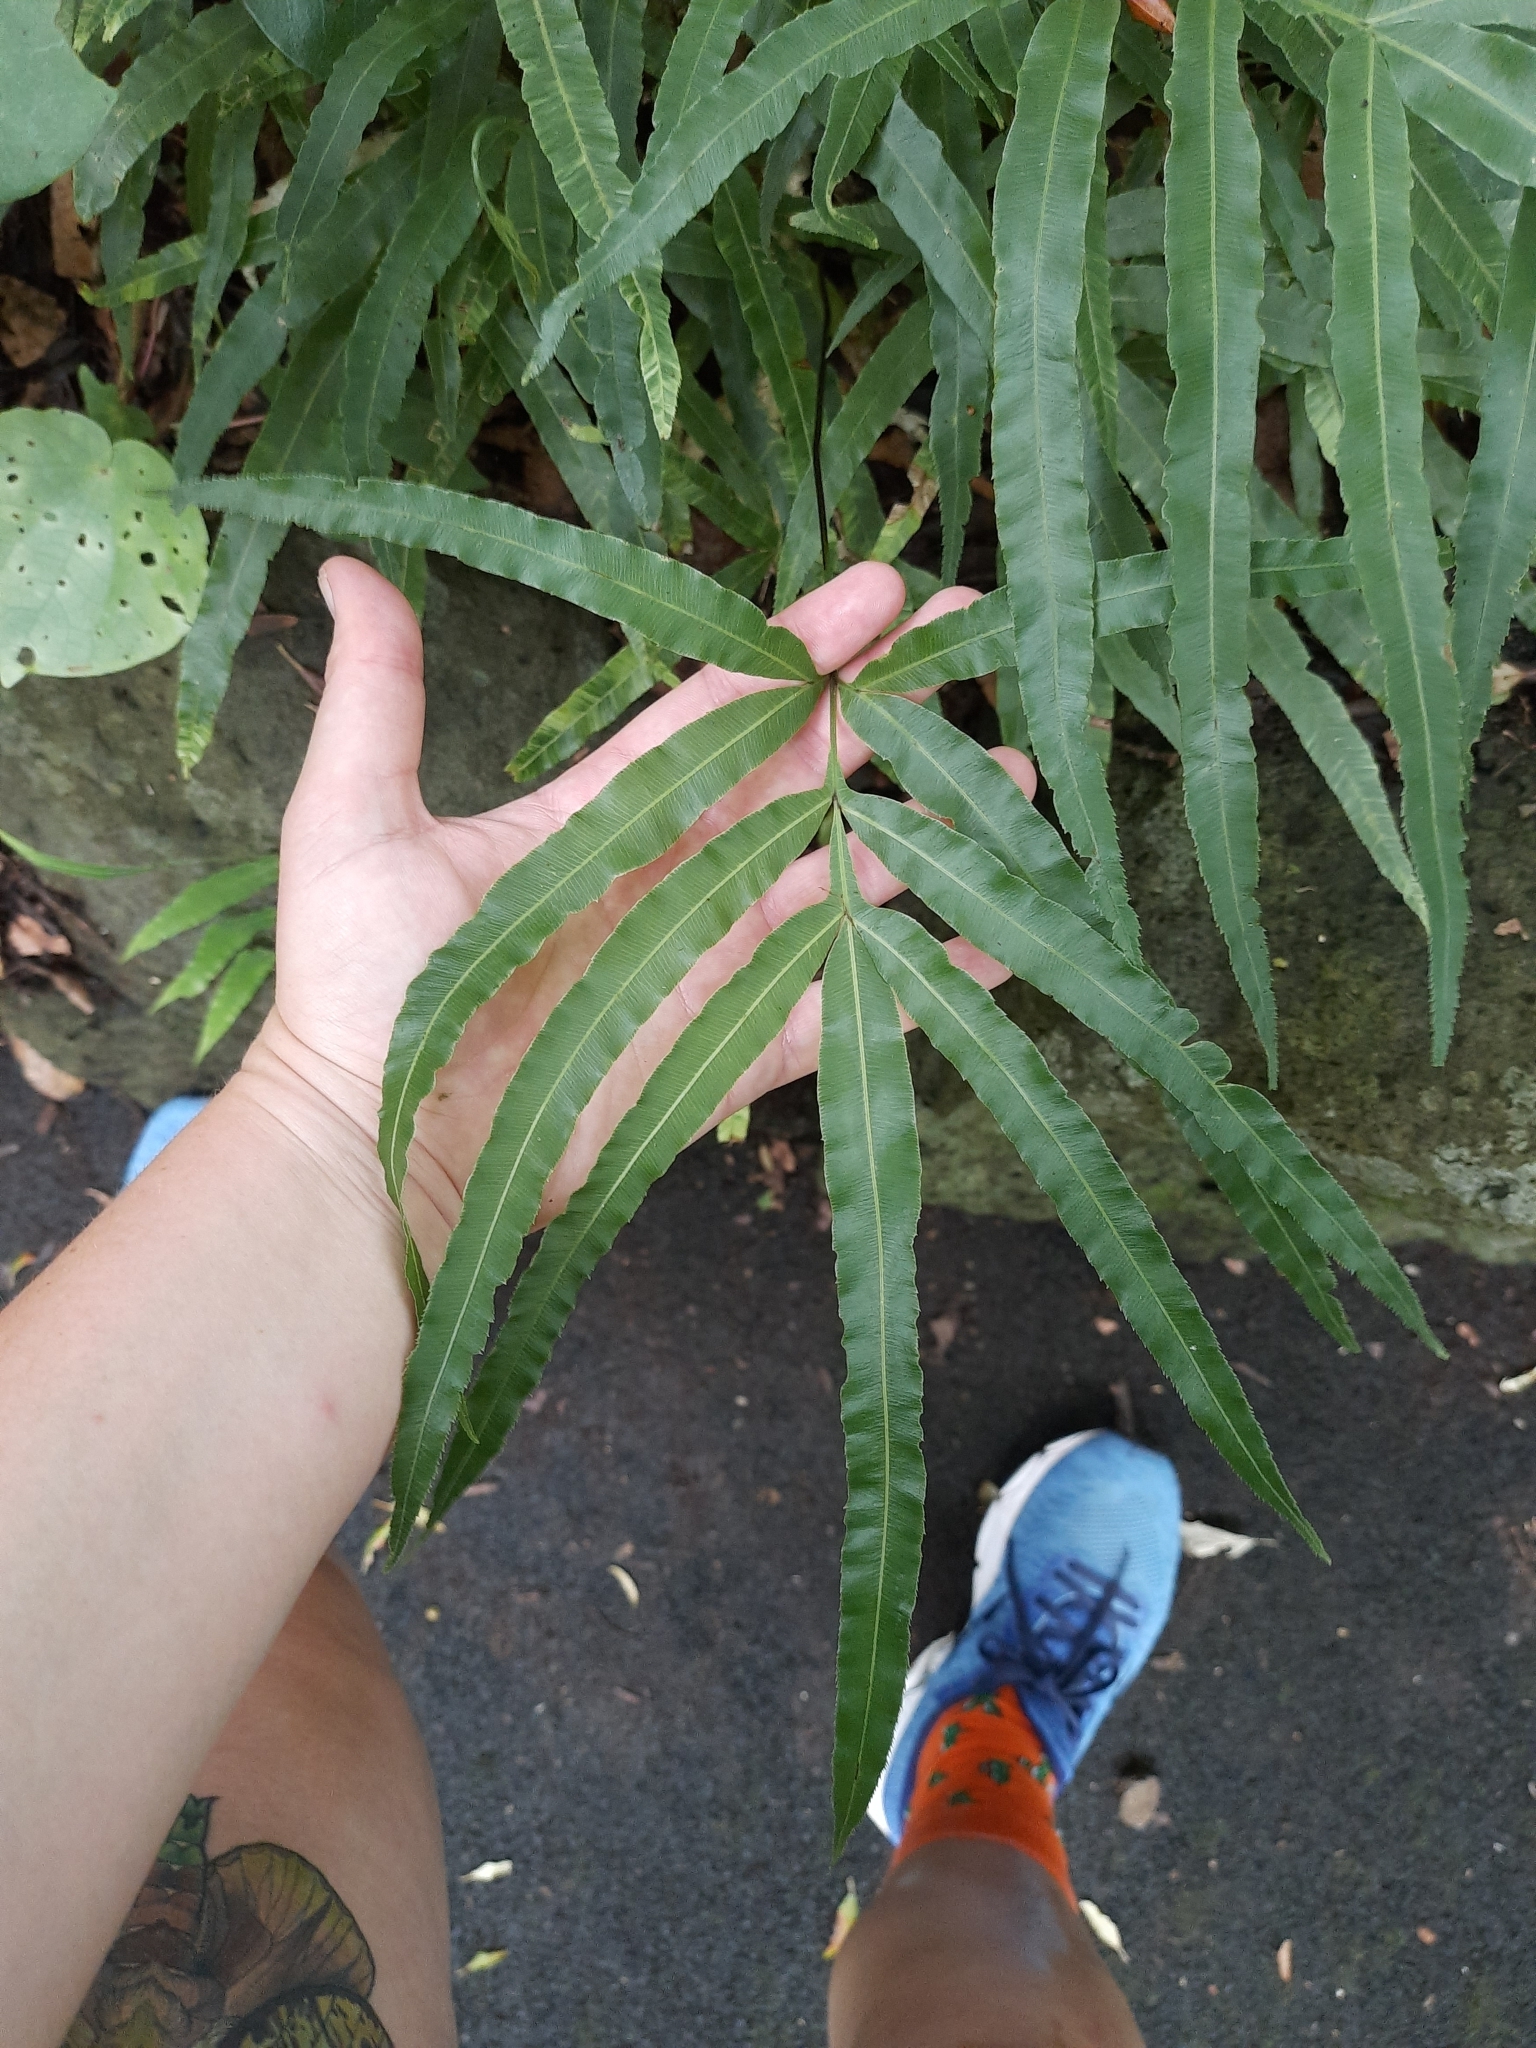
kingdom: Plantae
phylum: Tracheophyta
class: Polypodiopsida
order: Polypodiales
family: Pteridaceae
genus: Pteris
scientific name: Pteris cretica
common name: Ribbon fern
